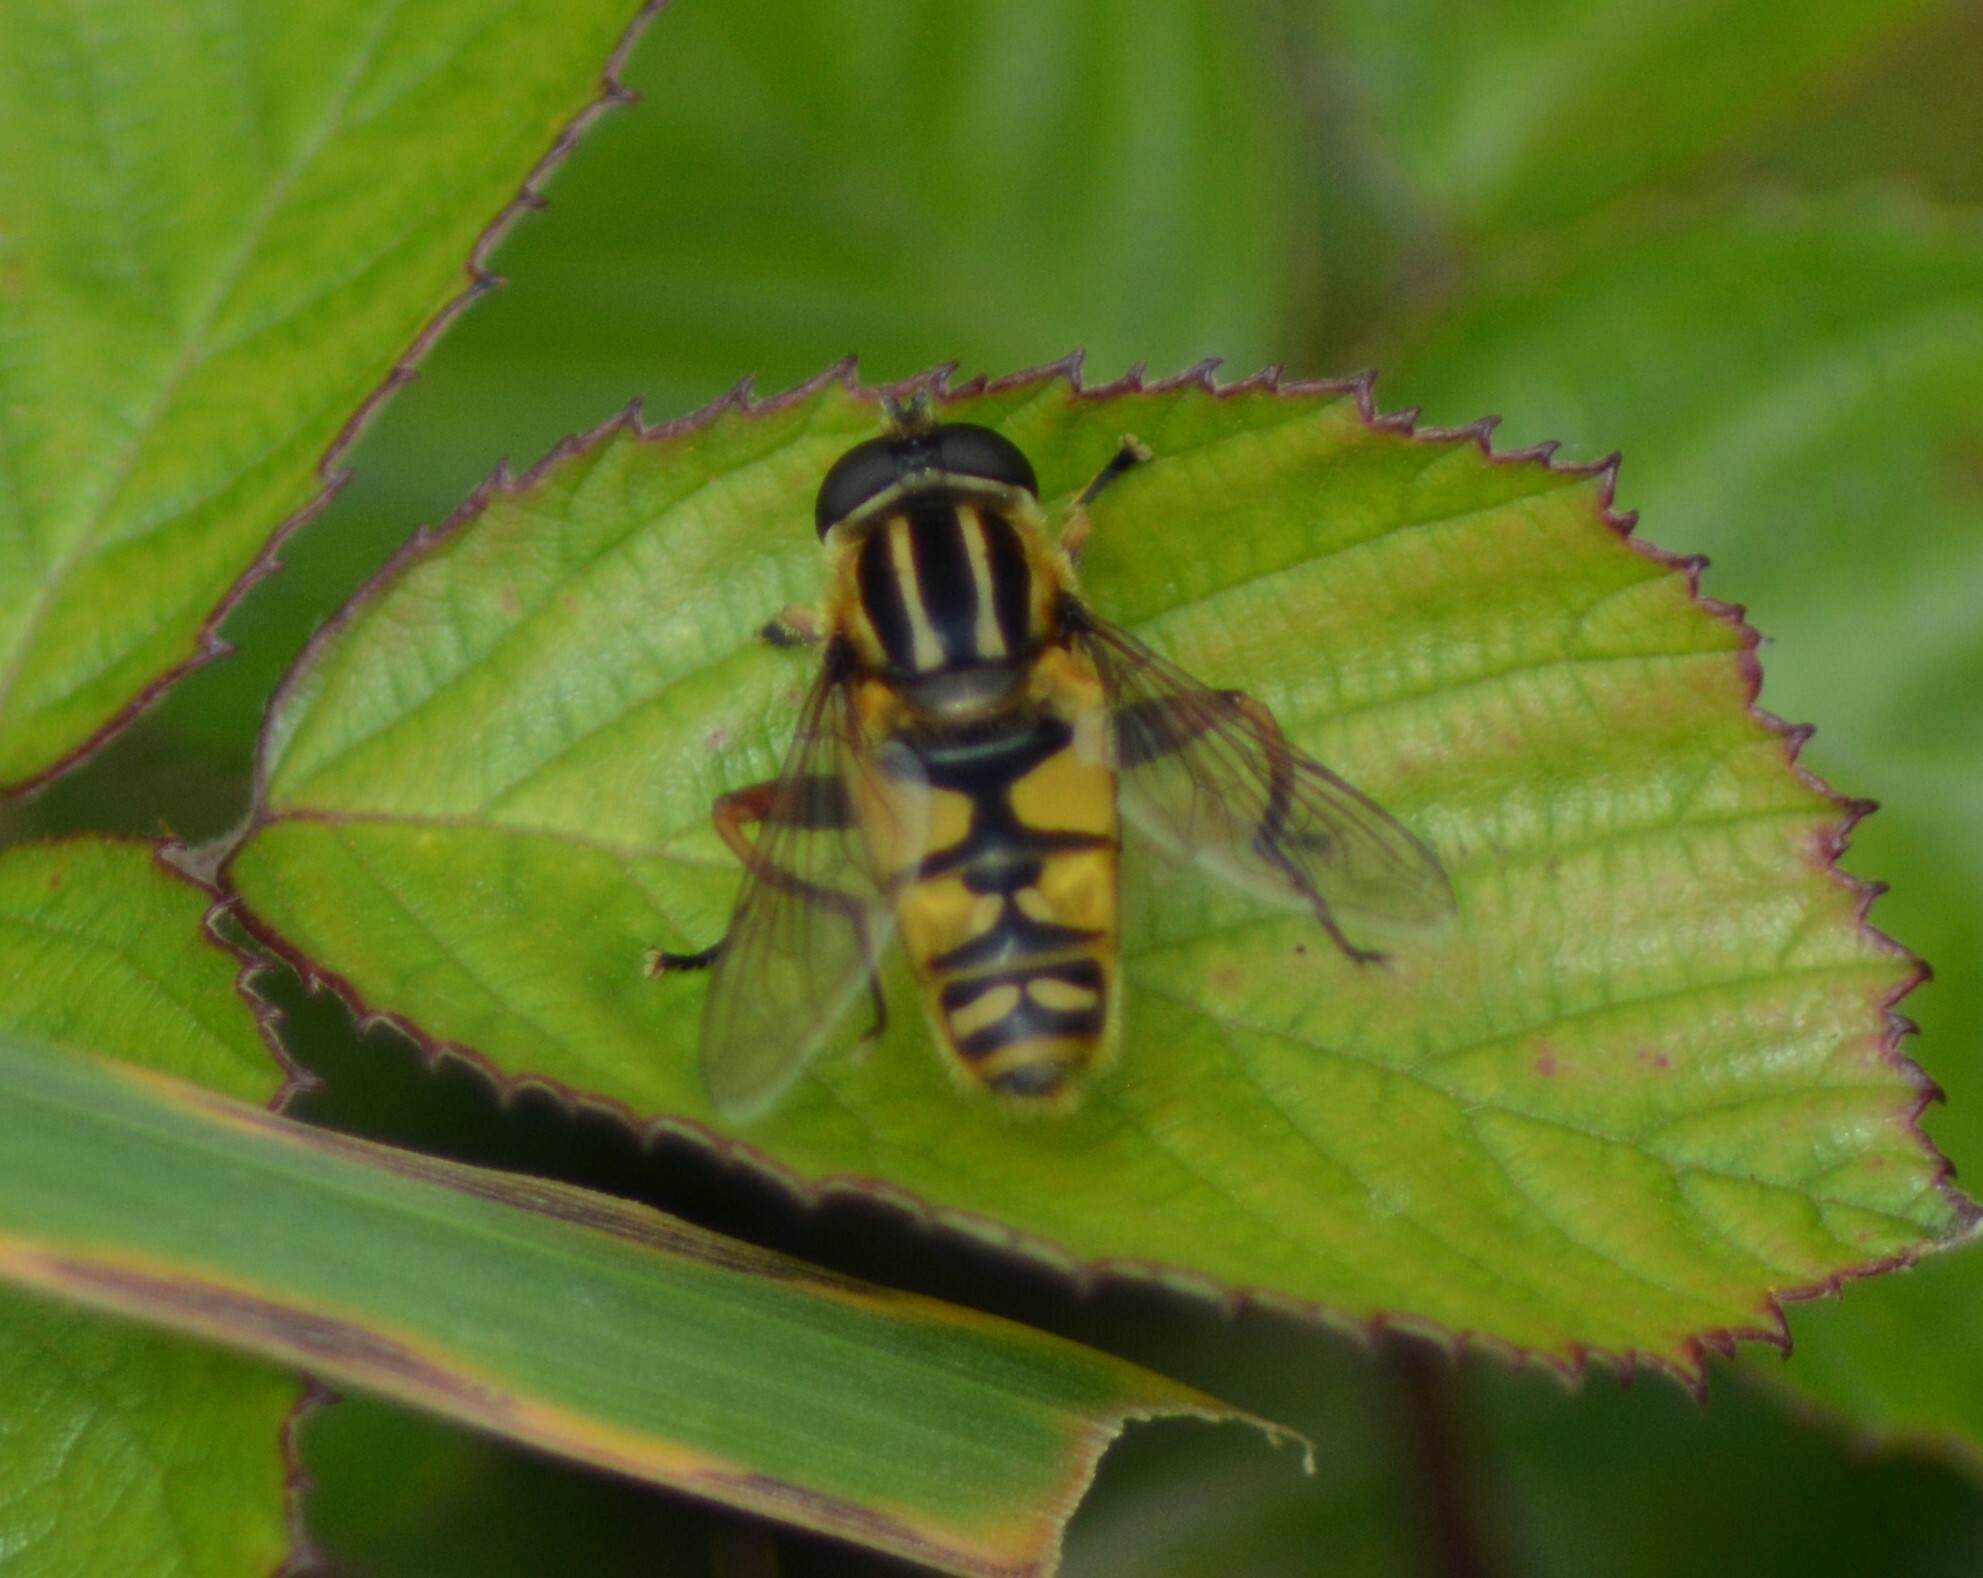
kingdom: Animalia
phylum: Arthropoda
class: Insecta
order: Diptera
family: Syrphidae
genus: Helophilus
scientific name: Helophilus pendulus
